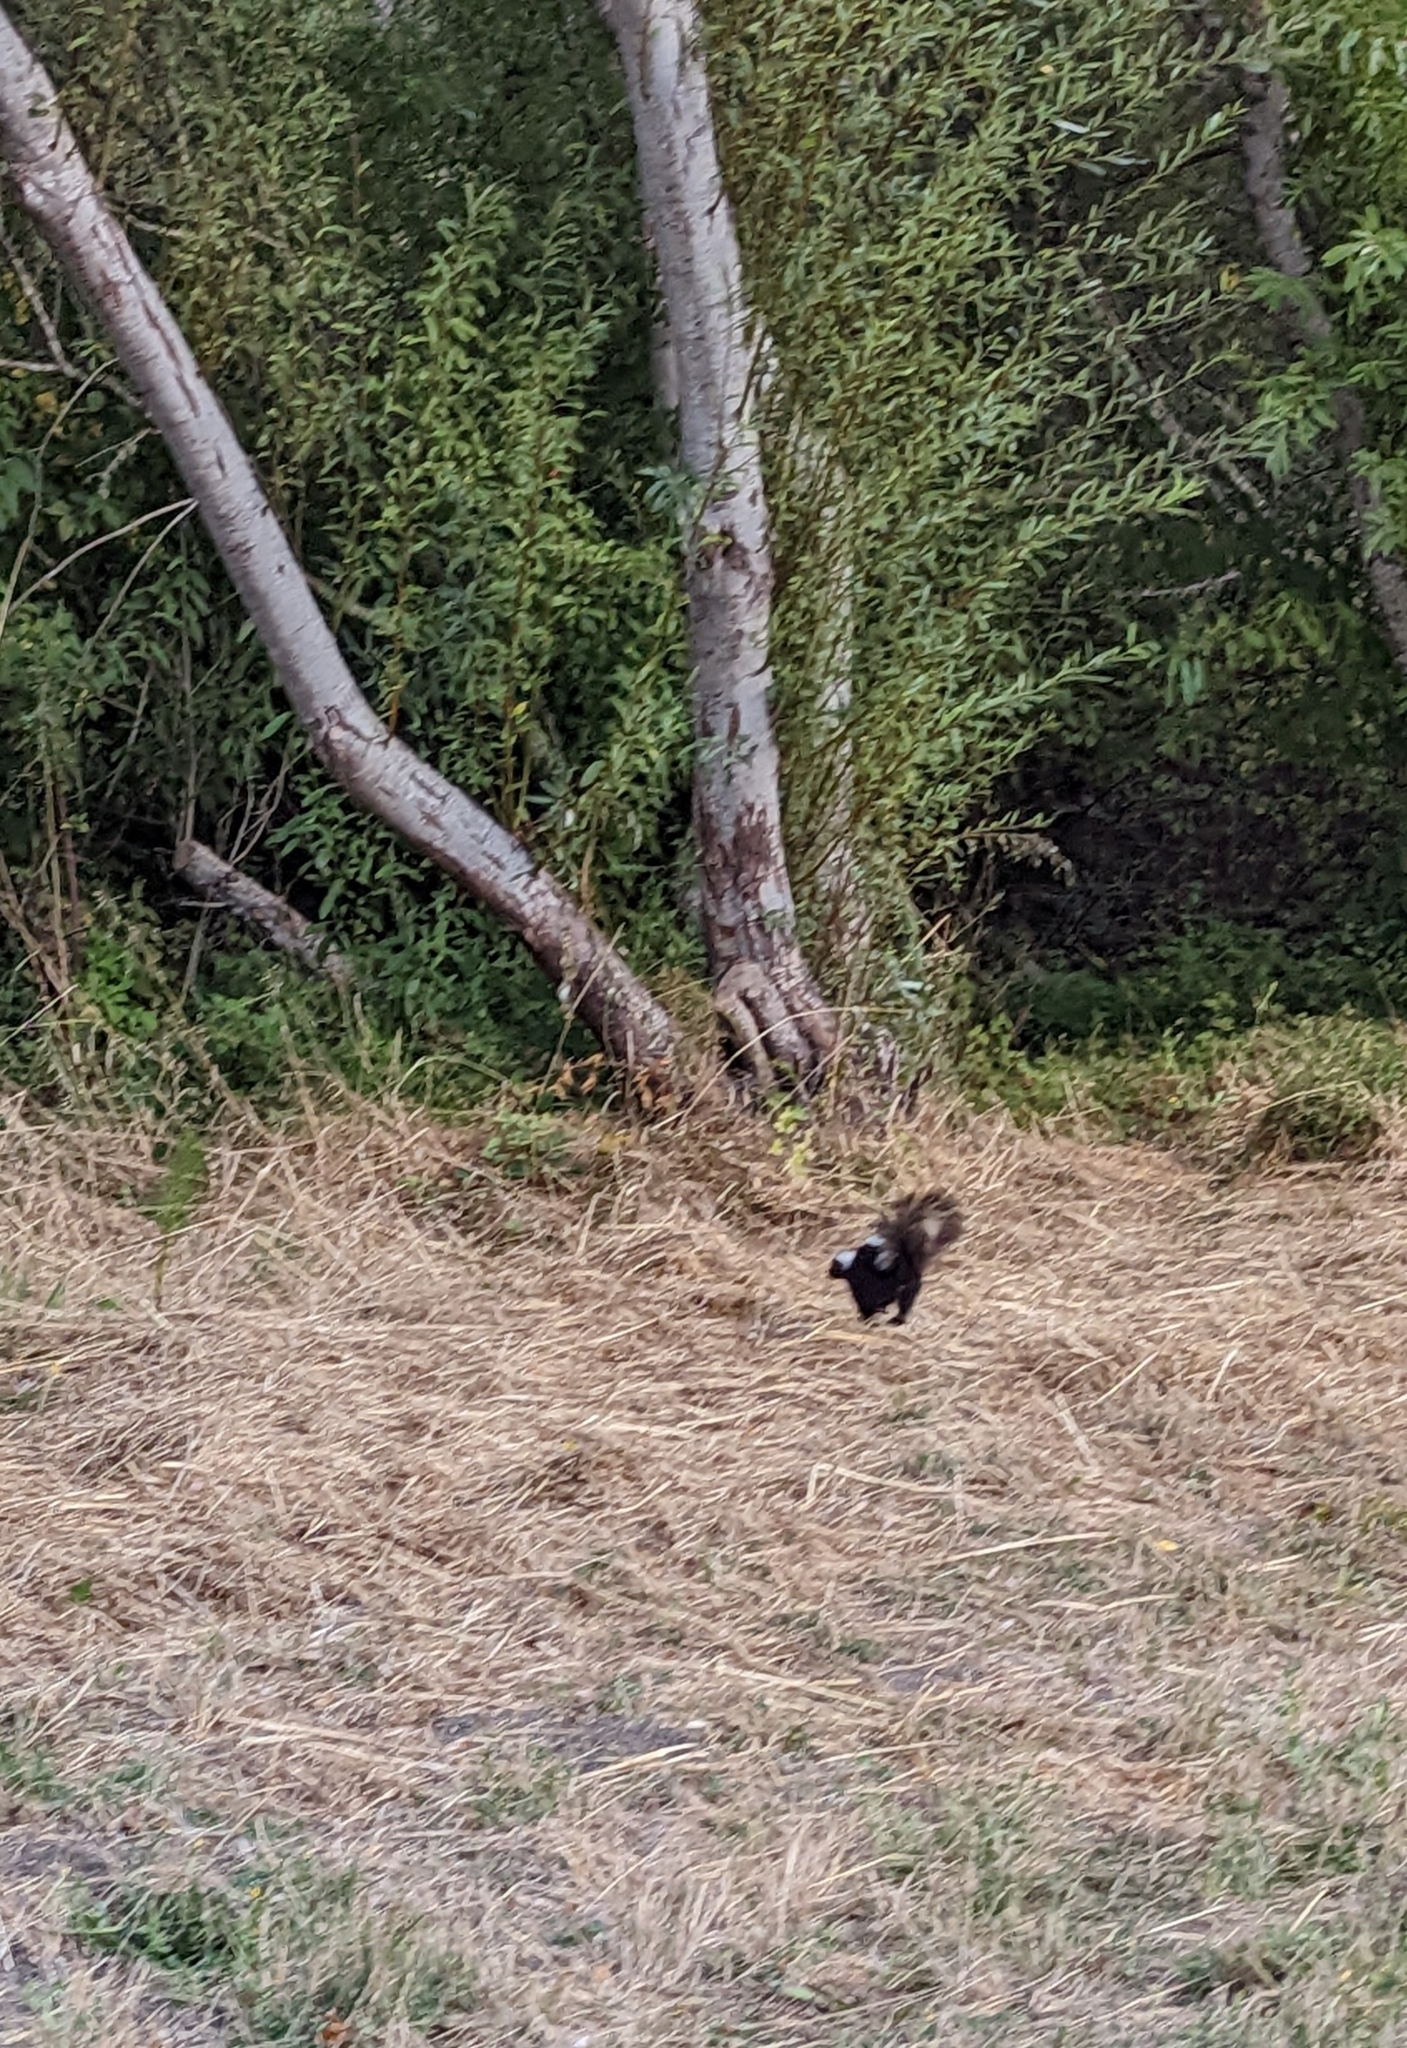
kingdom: Animalia
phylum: Chordata
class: Mammalia
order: Carnivora
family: Mephitidae
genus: Mephitis
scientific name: Mephitis mephitis
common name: Striped skunk
